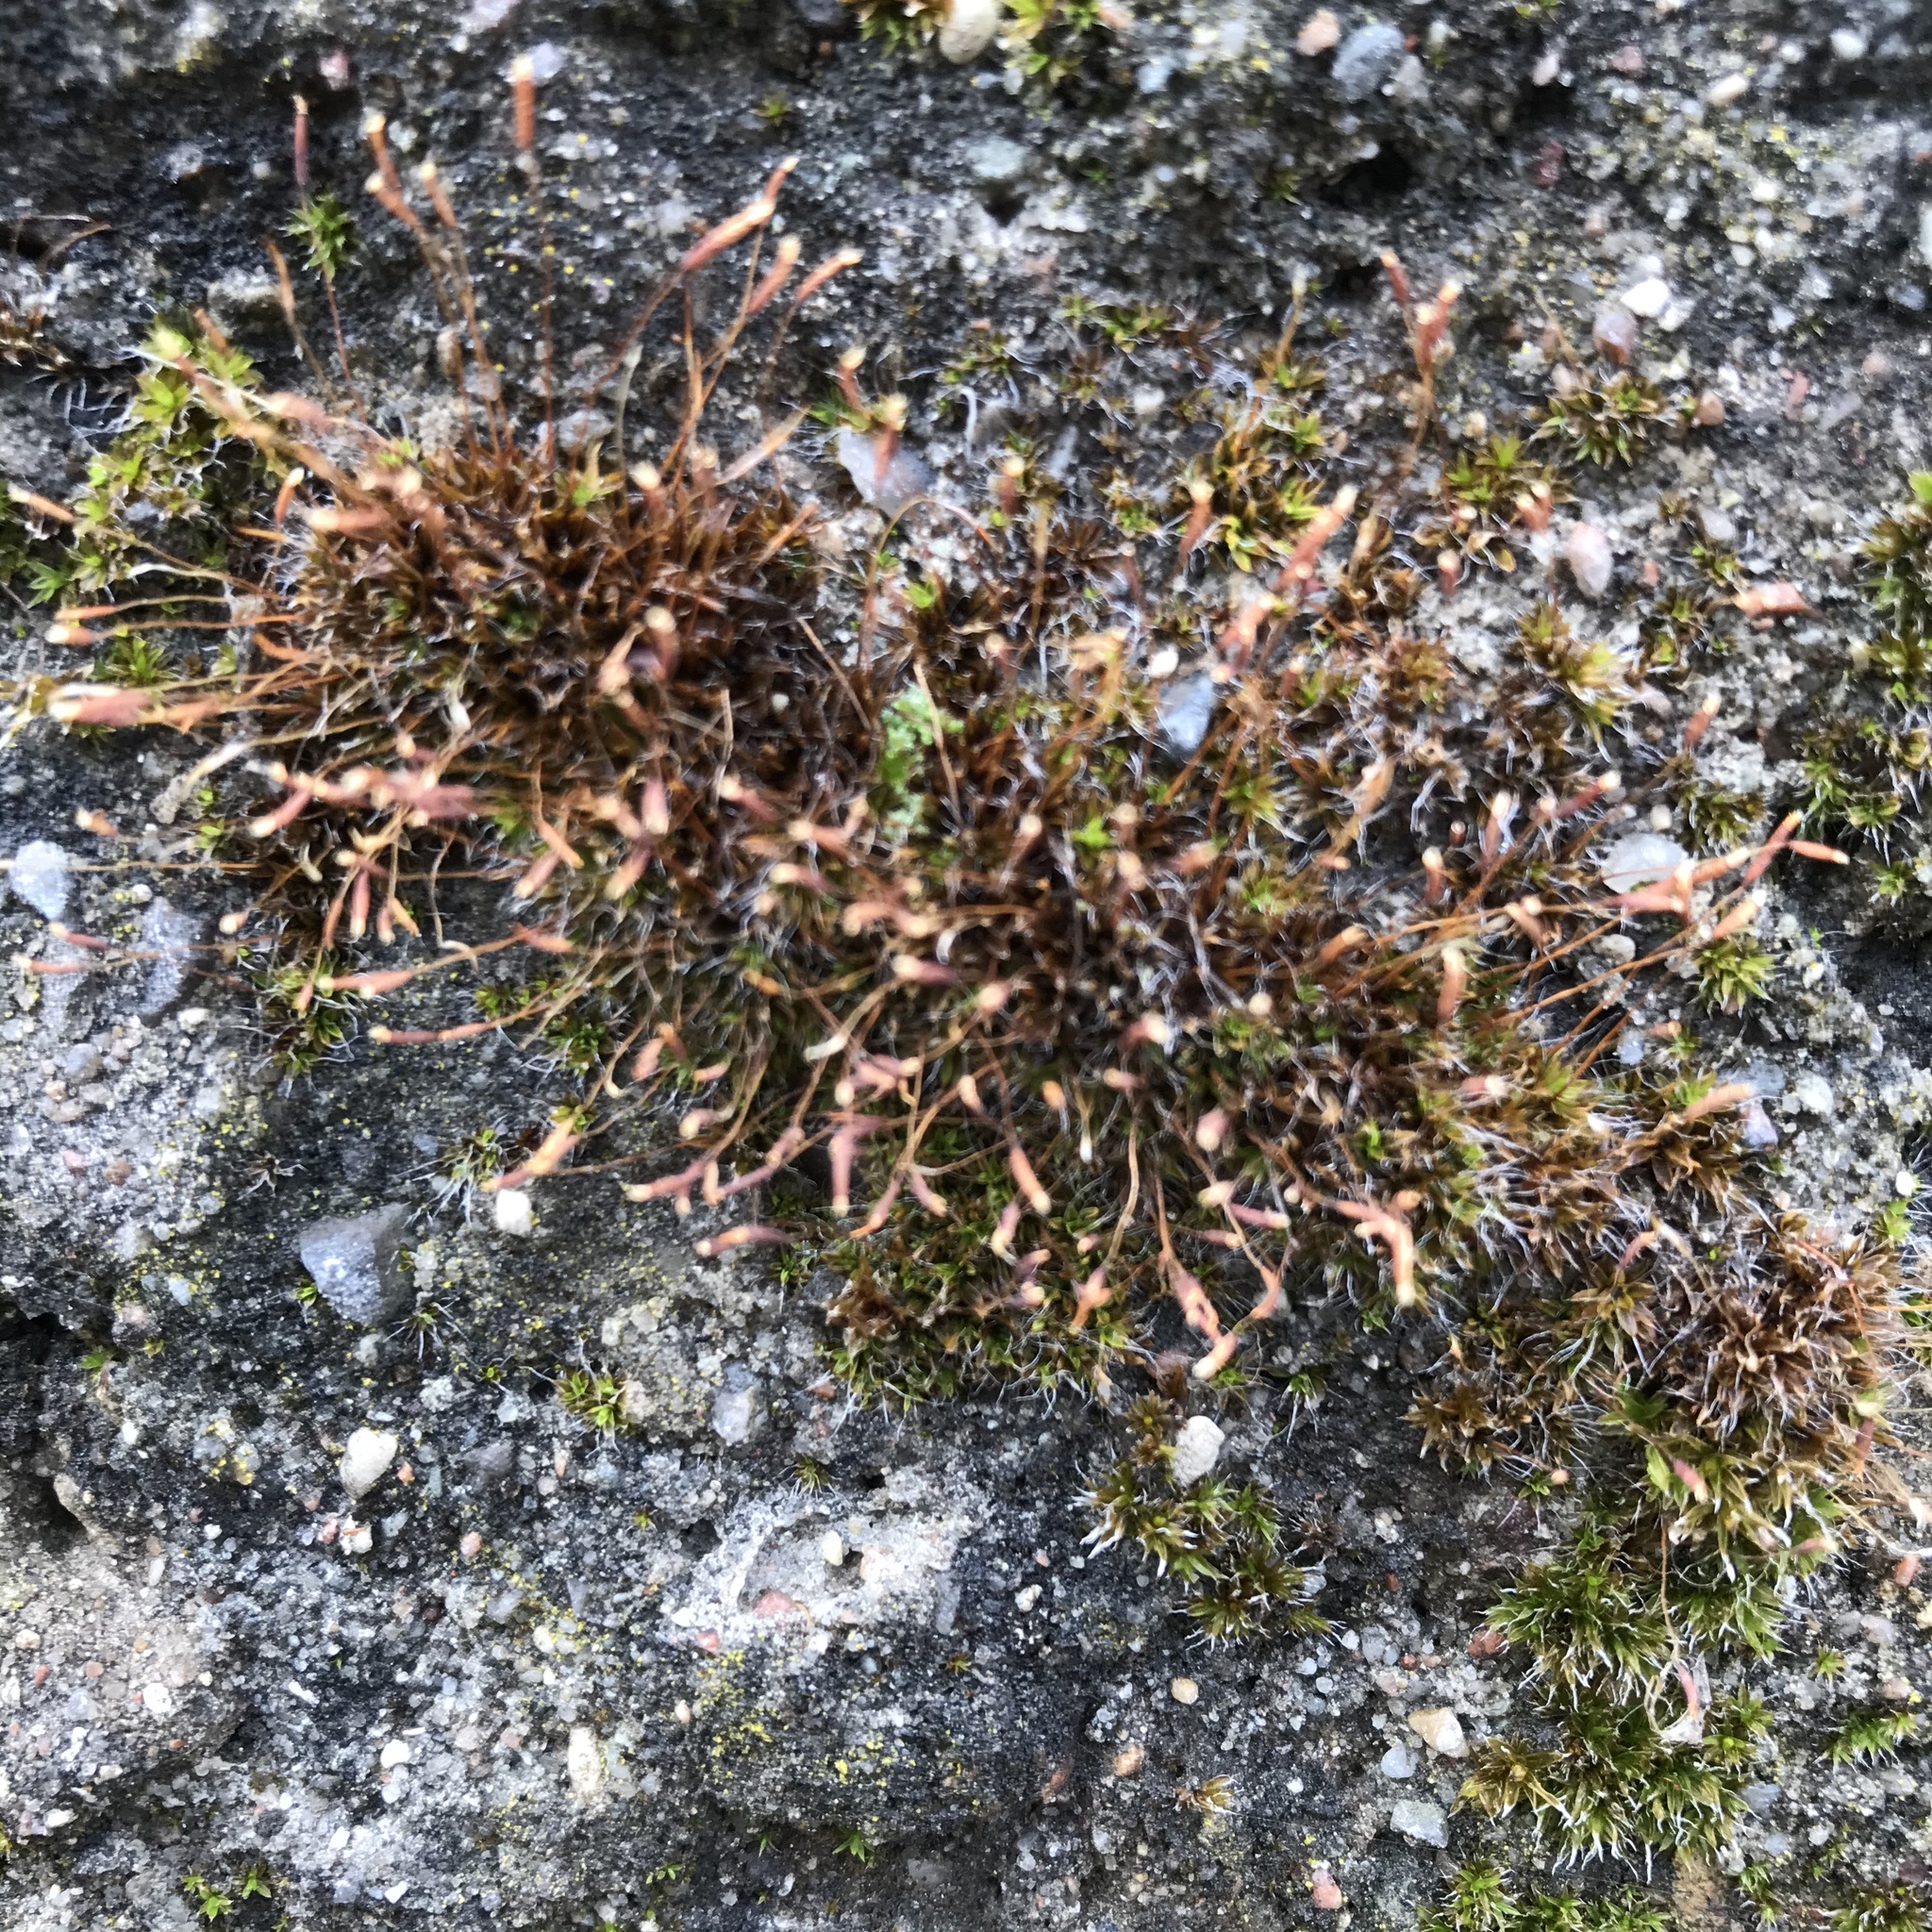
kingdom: Plantae
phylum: Bryophyta
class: Bryopsida
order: Pottiales
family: Pottiaceae
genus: Tortula
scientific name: Tortula muralis
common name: Wall screw-moss
